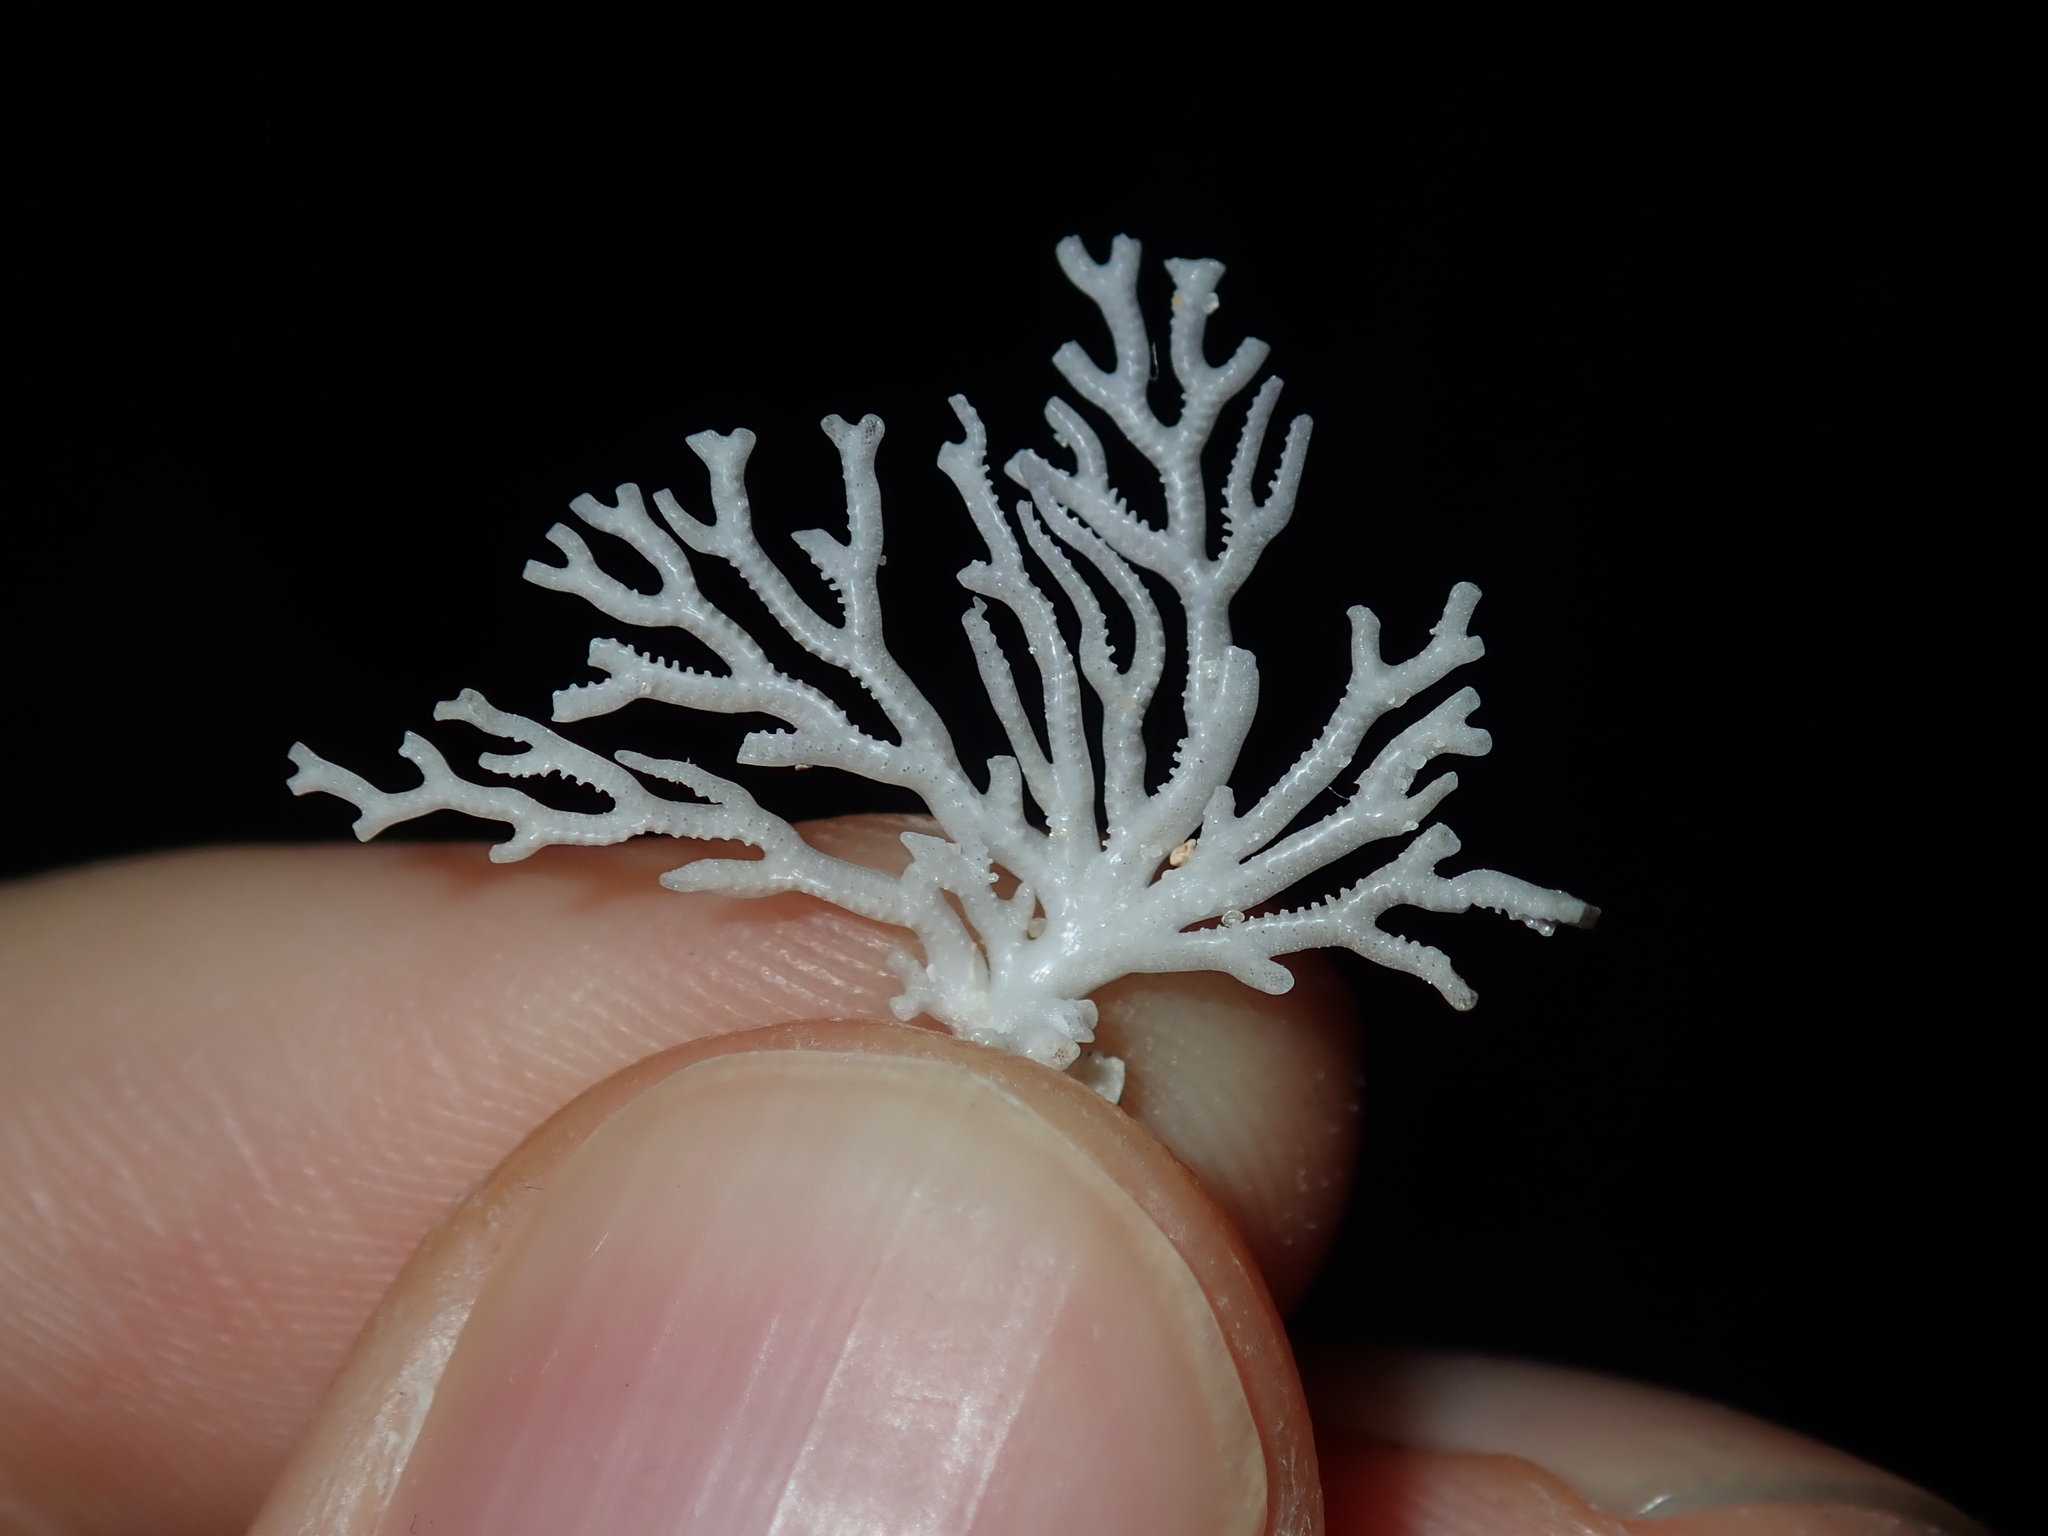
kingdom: Animalia
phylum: Bryozoa
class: Stenolaemata
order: Cyclostomatida
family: Crisinidae
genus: Mesonea
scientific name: Mesonea radians
